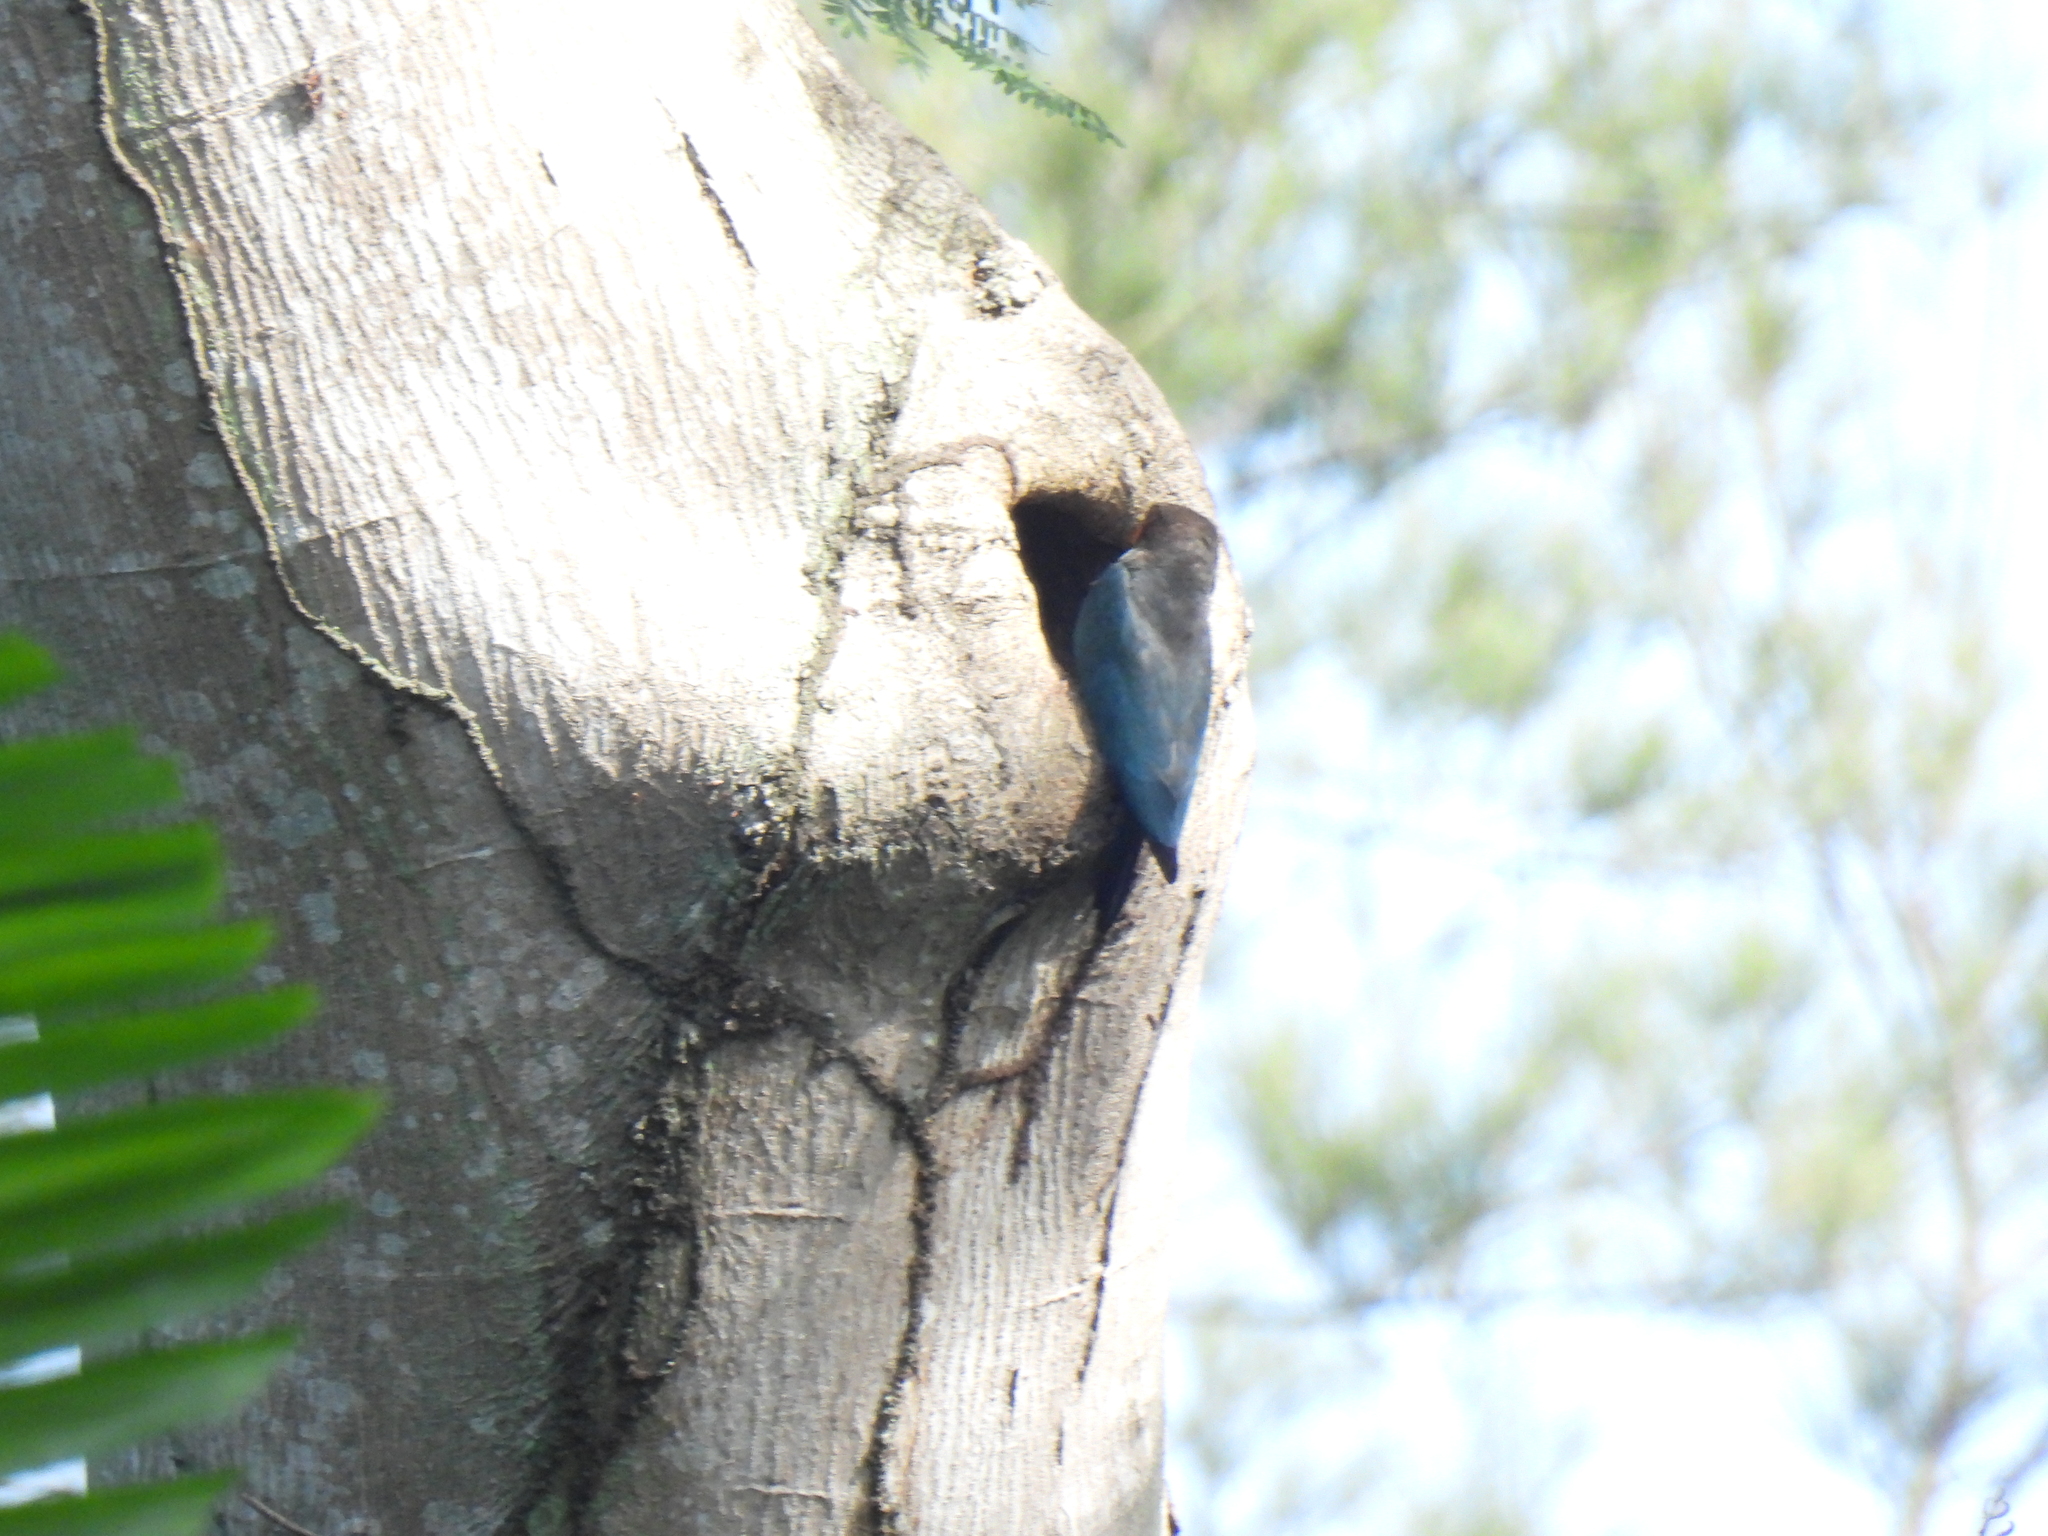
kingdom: Animalia
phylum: Chordata
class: Aves
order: Coraciiformes
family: Coraciidae
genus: Eurystomus
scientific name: Eurystomus orientalis
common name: Oriental dollarbird
